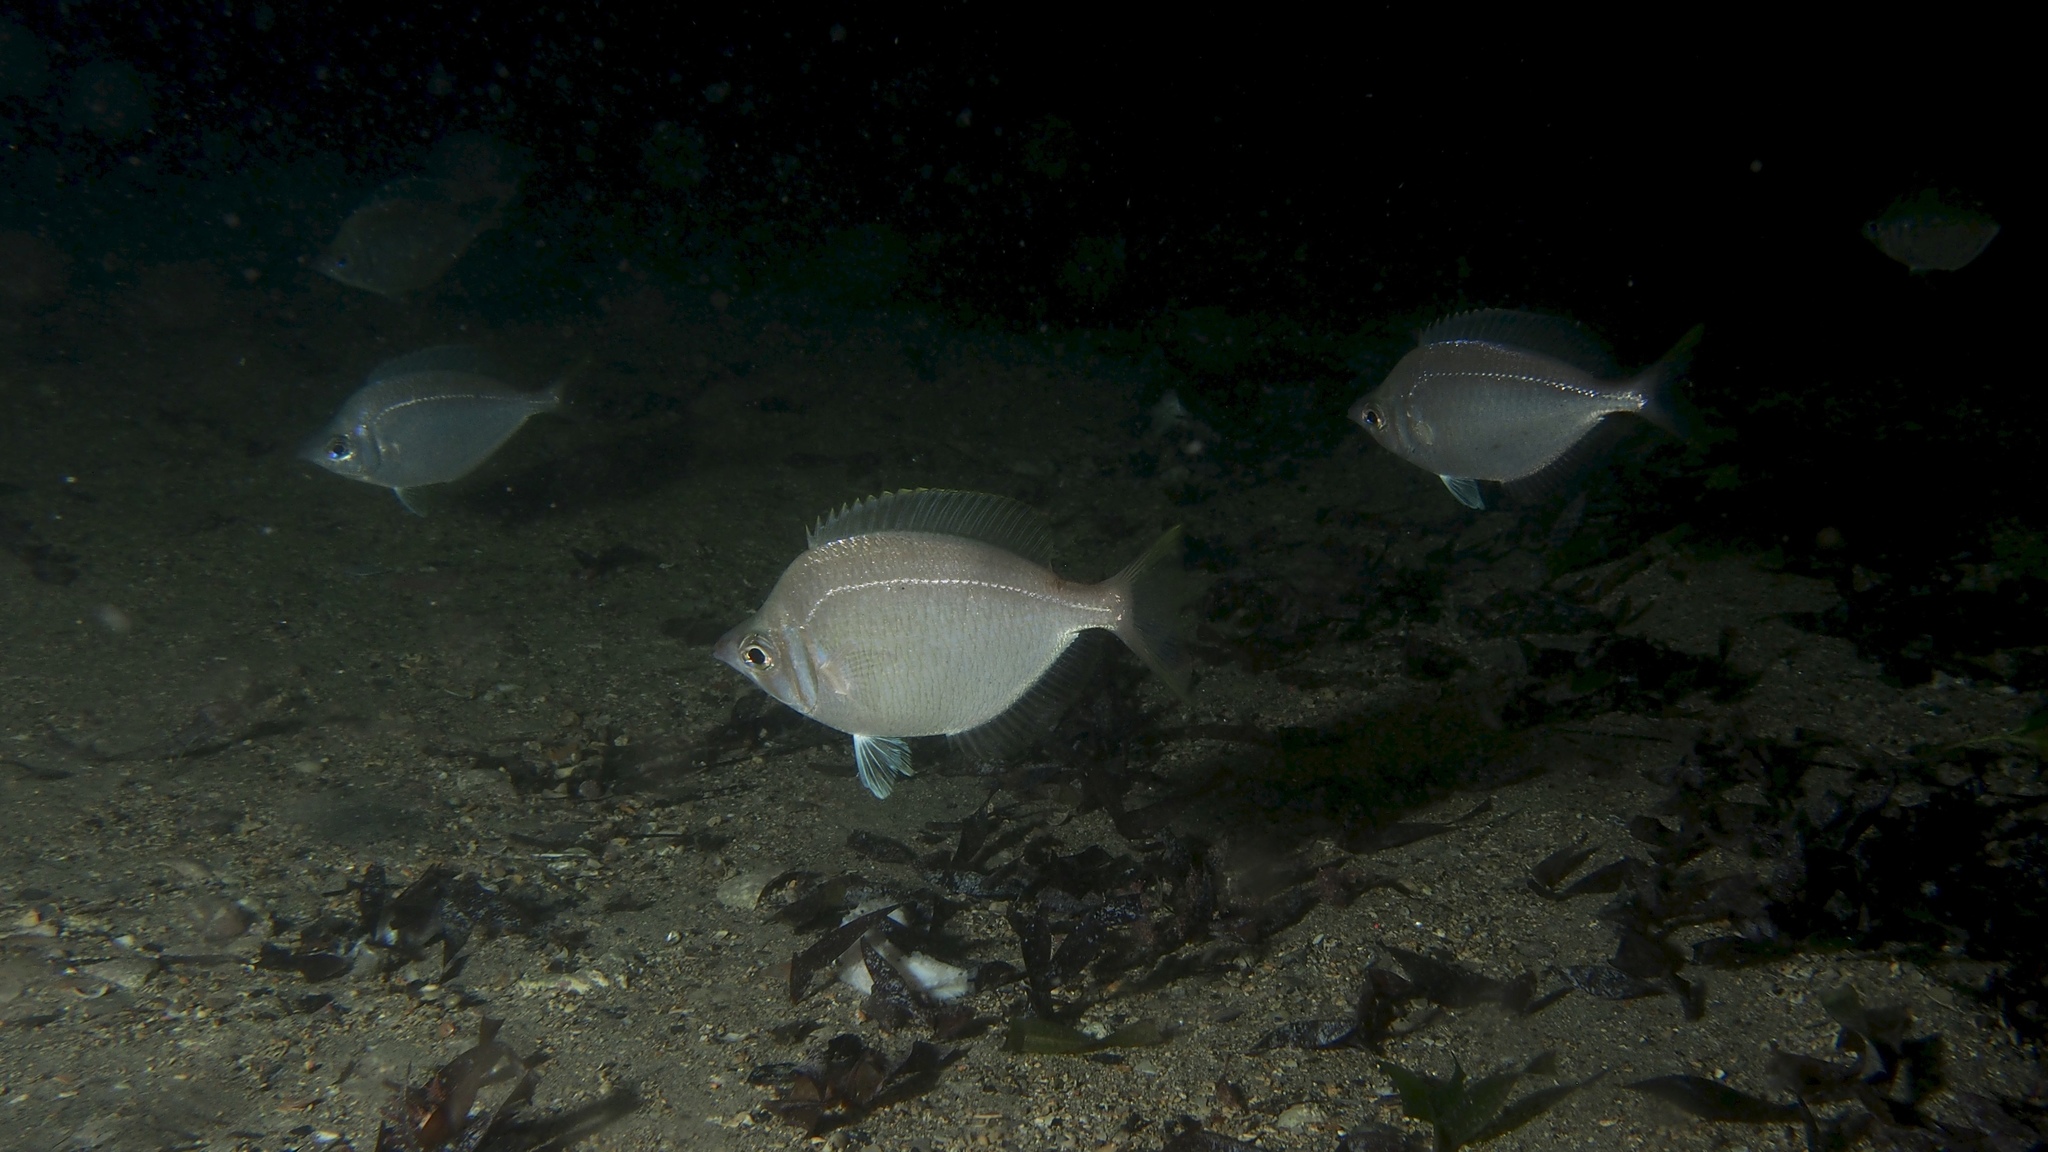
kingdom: Animalia
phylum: Chordata
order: Perciformes
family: Gerreidae
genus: Parequula
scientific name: Parequula melbournensis
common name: Silverbelly
